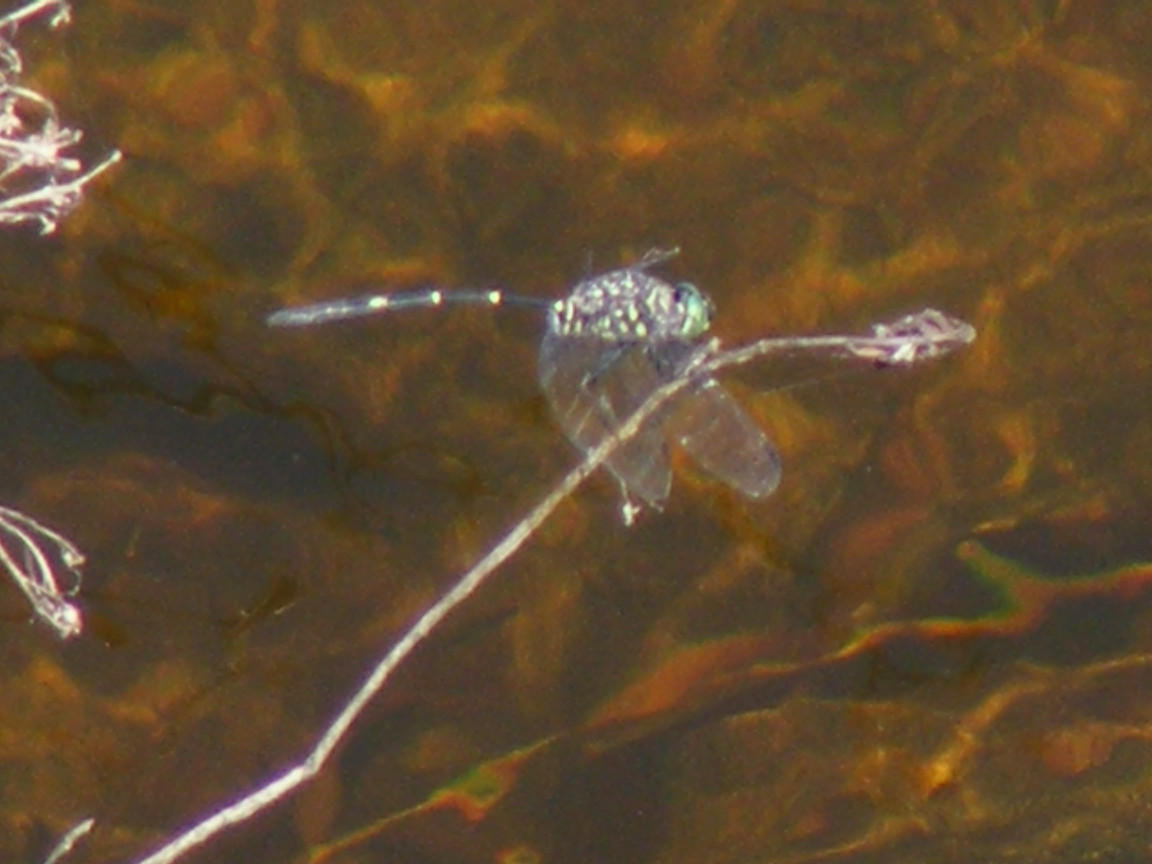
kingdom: Animalia
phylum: Arthropoda
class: Insecta
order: Odonata
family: Libellulidae
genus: Olpogastra
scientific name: Olpogastra lugubris
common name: Bottletail
